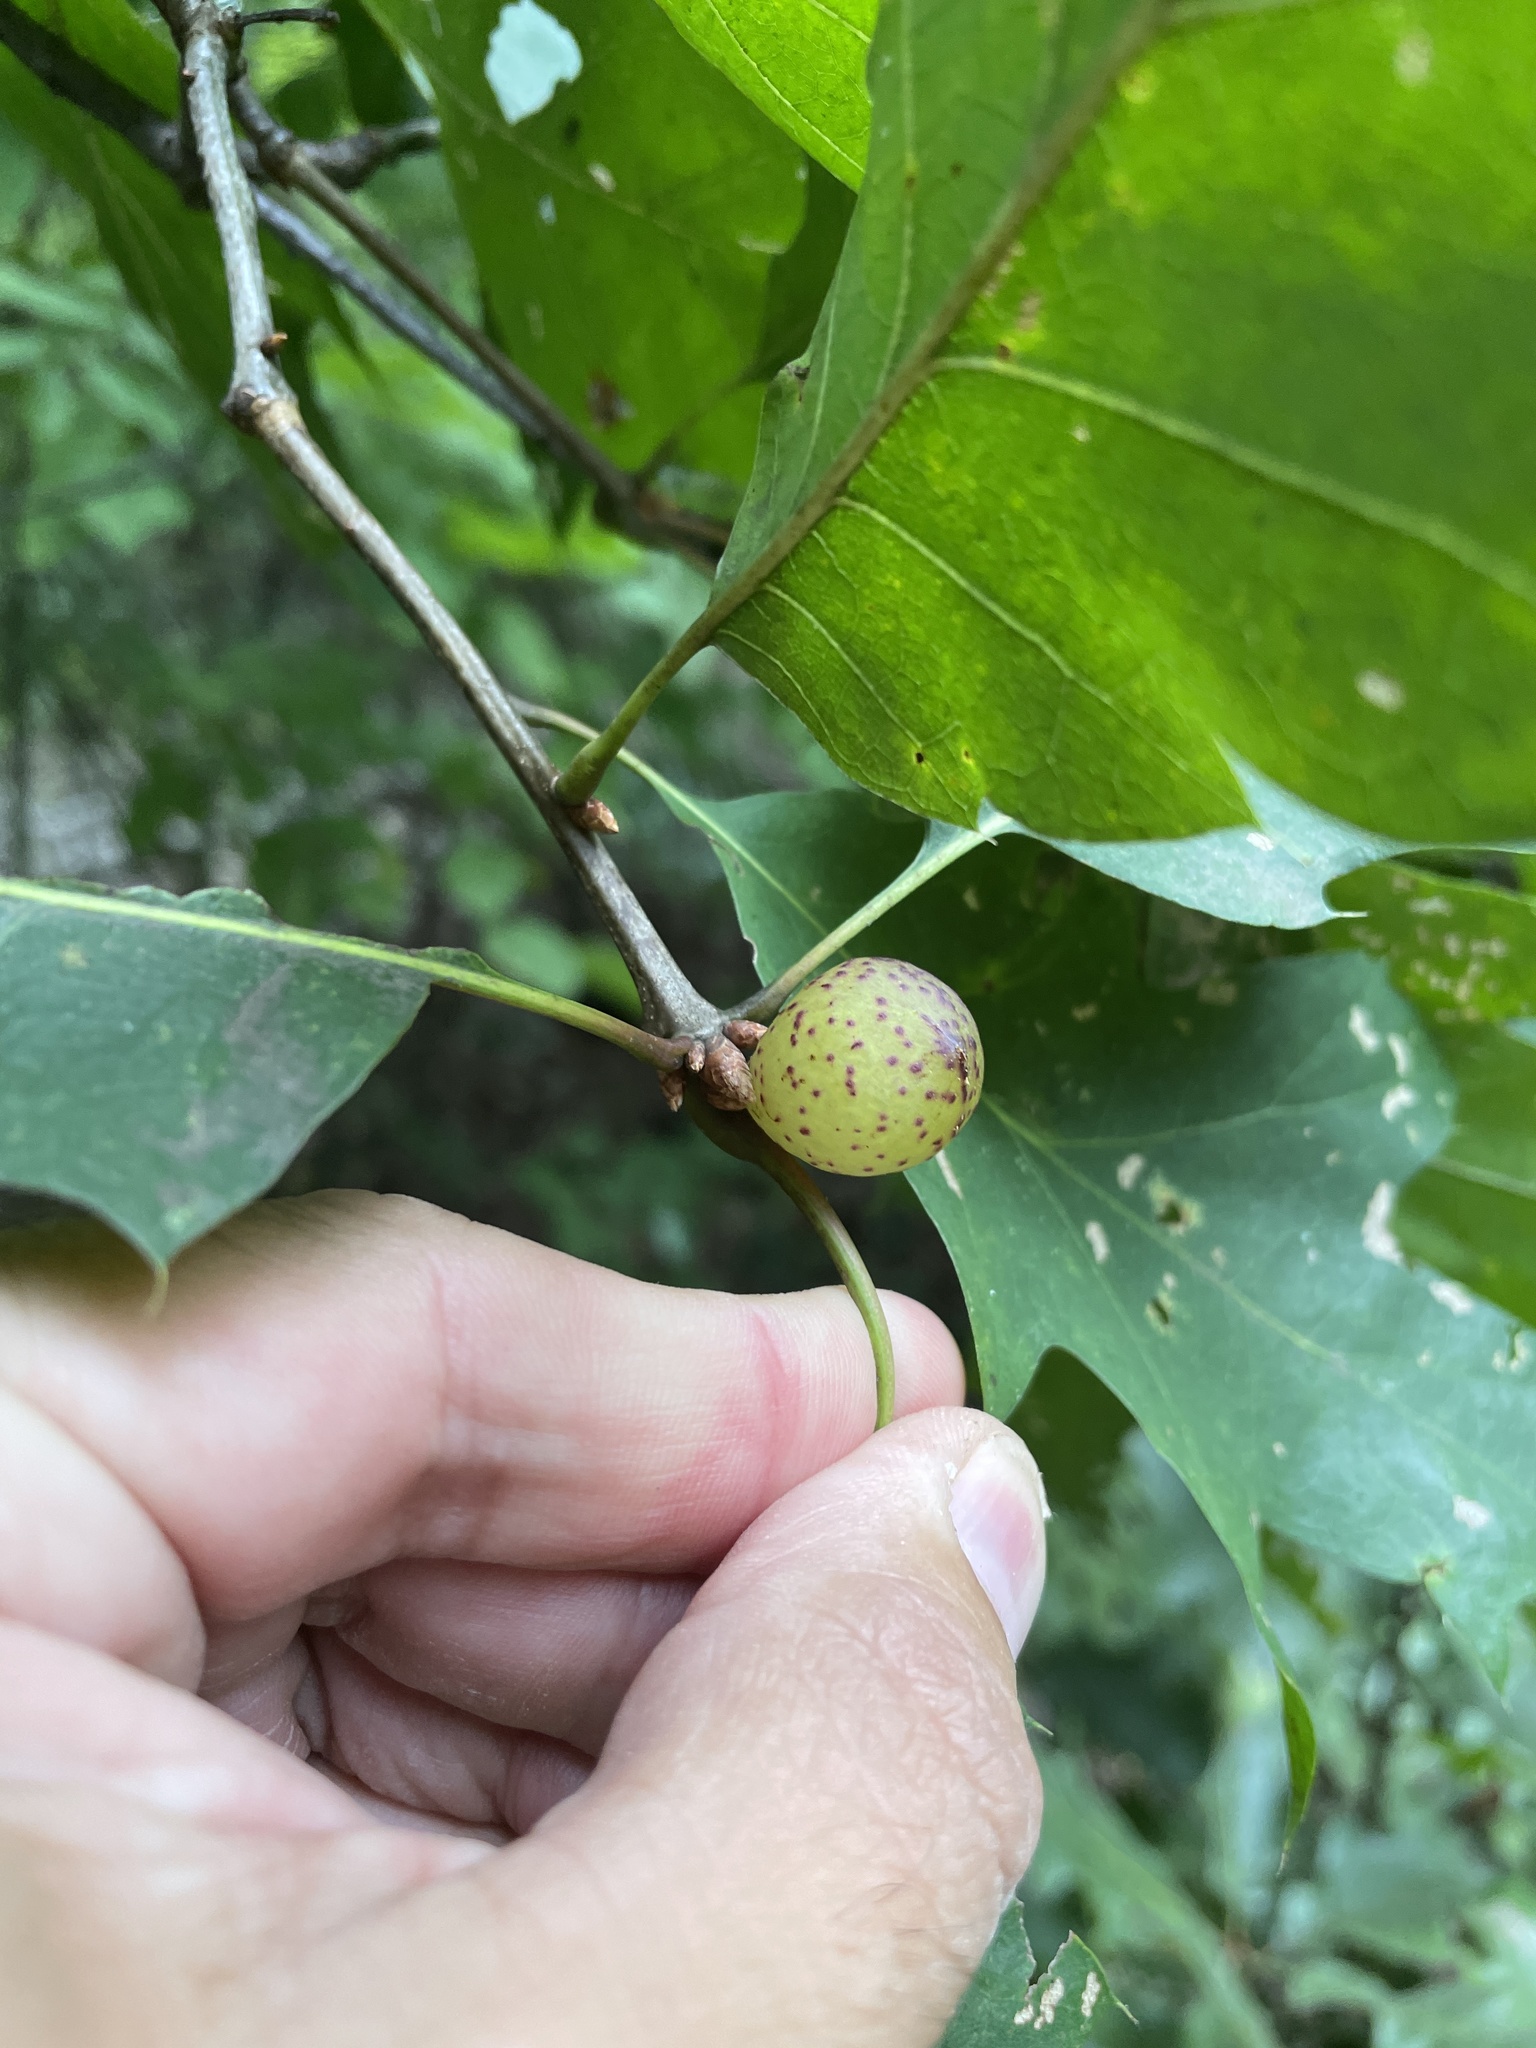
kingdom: Animalia
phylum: Arthropoda
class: Insecta
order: Hymenoptera
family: Cynipidae
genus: Amphibolips
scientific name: Amphibolips
